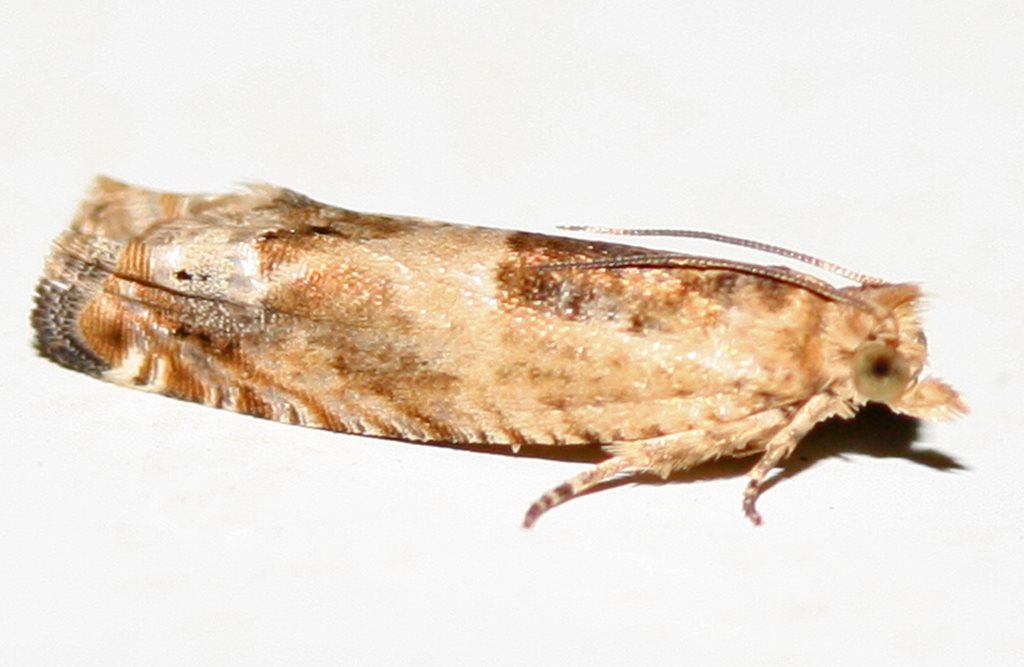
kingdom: Animalia
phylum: Arthropoda
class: Insecta
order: Lepidoptera
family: Tortricidae
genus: Crocidosema
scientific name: Crocidosema plebejana
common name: Southern bell
